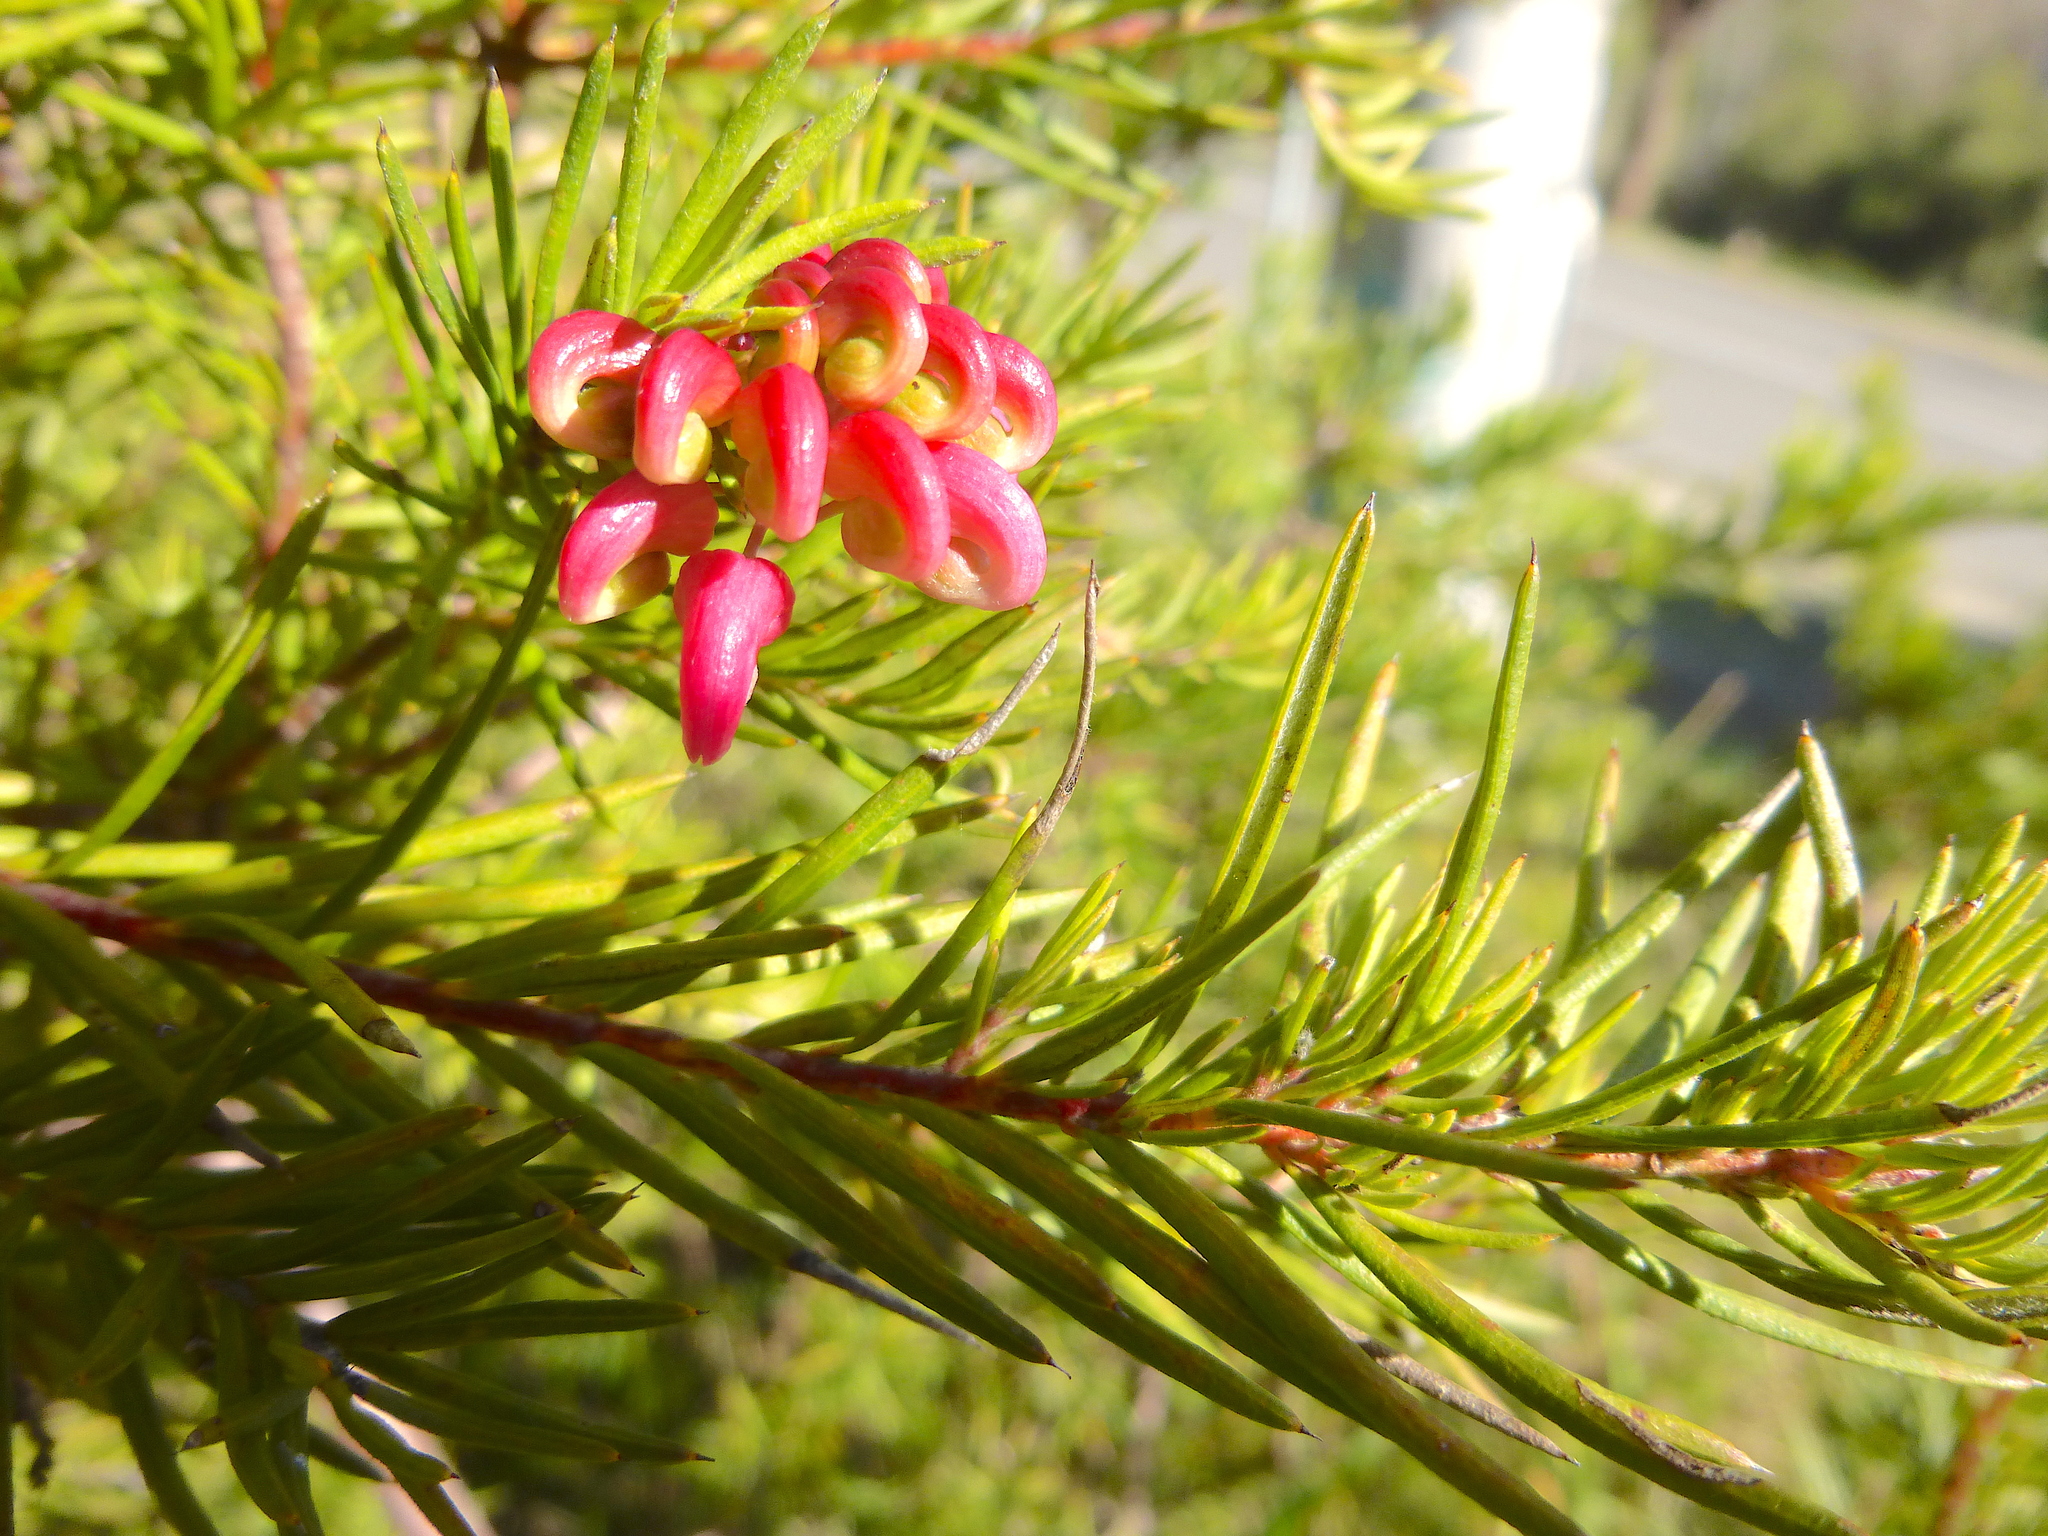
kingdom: Plantae
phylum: Tracheophyta
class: Magnoliopsida
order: Proteales
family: Proteaceae
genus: Grevillea
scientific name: Grevillea rosmarinifolia
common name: Rosemary grevillea
